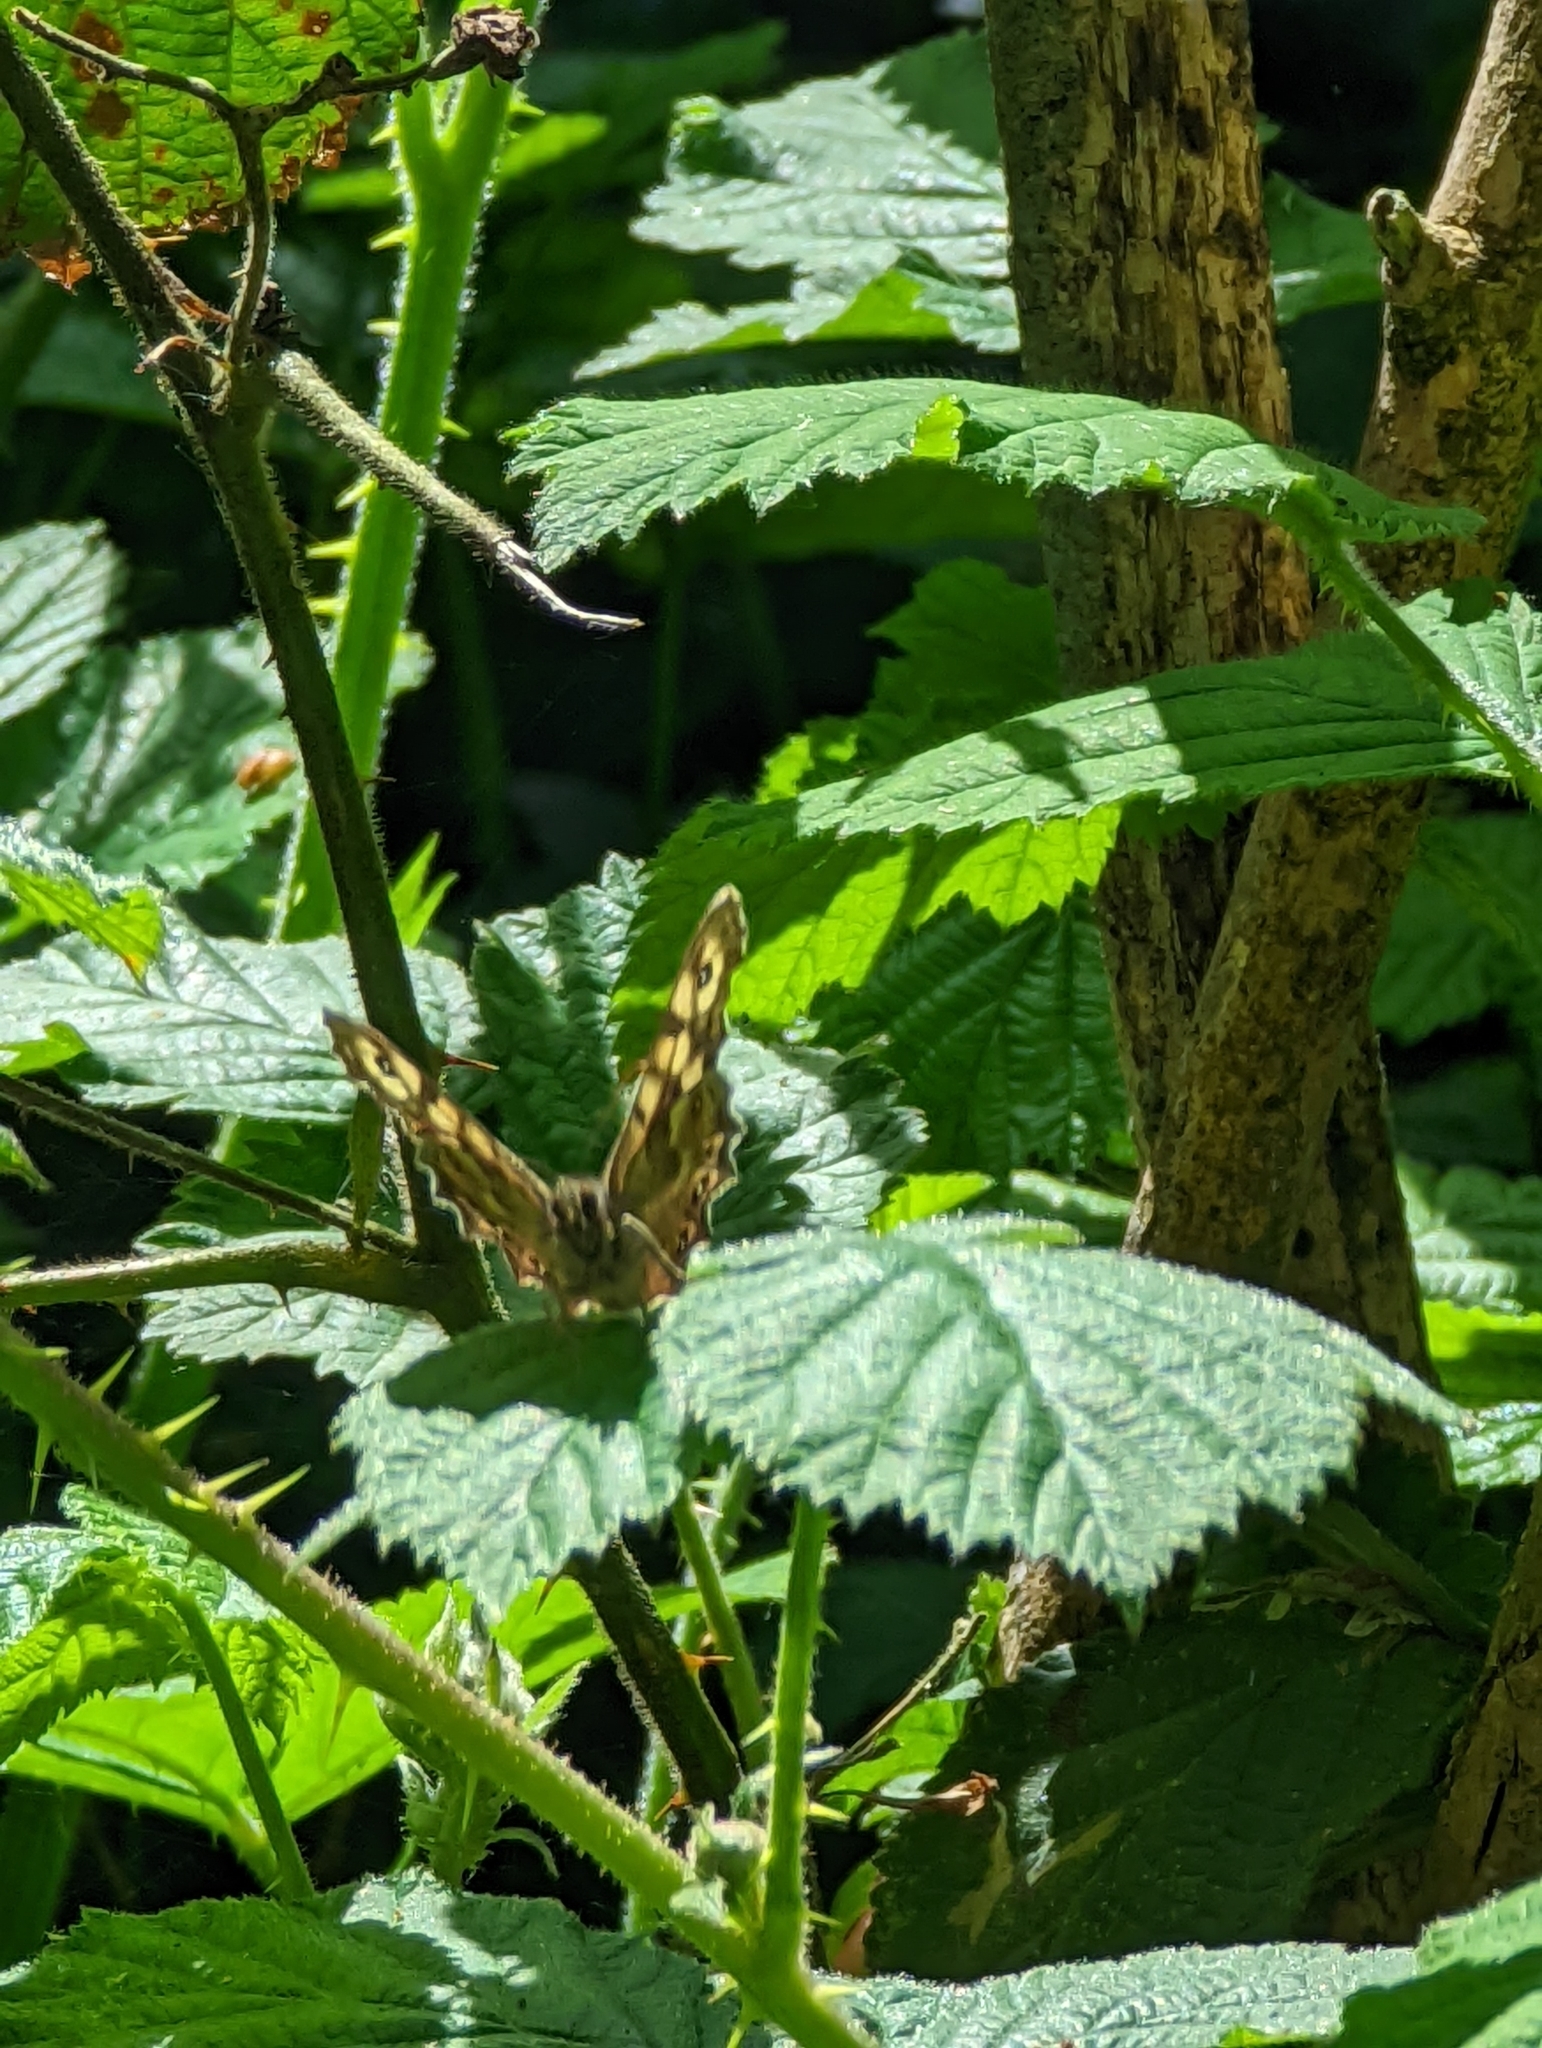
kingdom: Animalia
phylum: Arthropoda
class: Insecta
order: Lepidoptera
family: Nymphalidae
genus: Pararge
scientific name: Pararge aegeria
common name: Speckled wood
